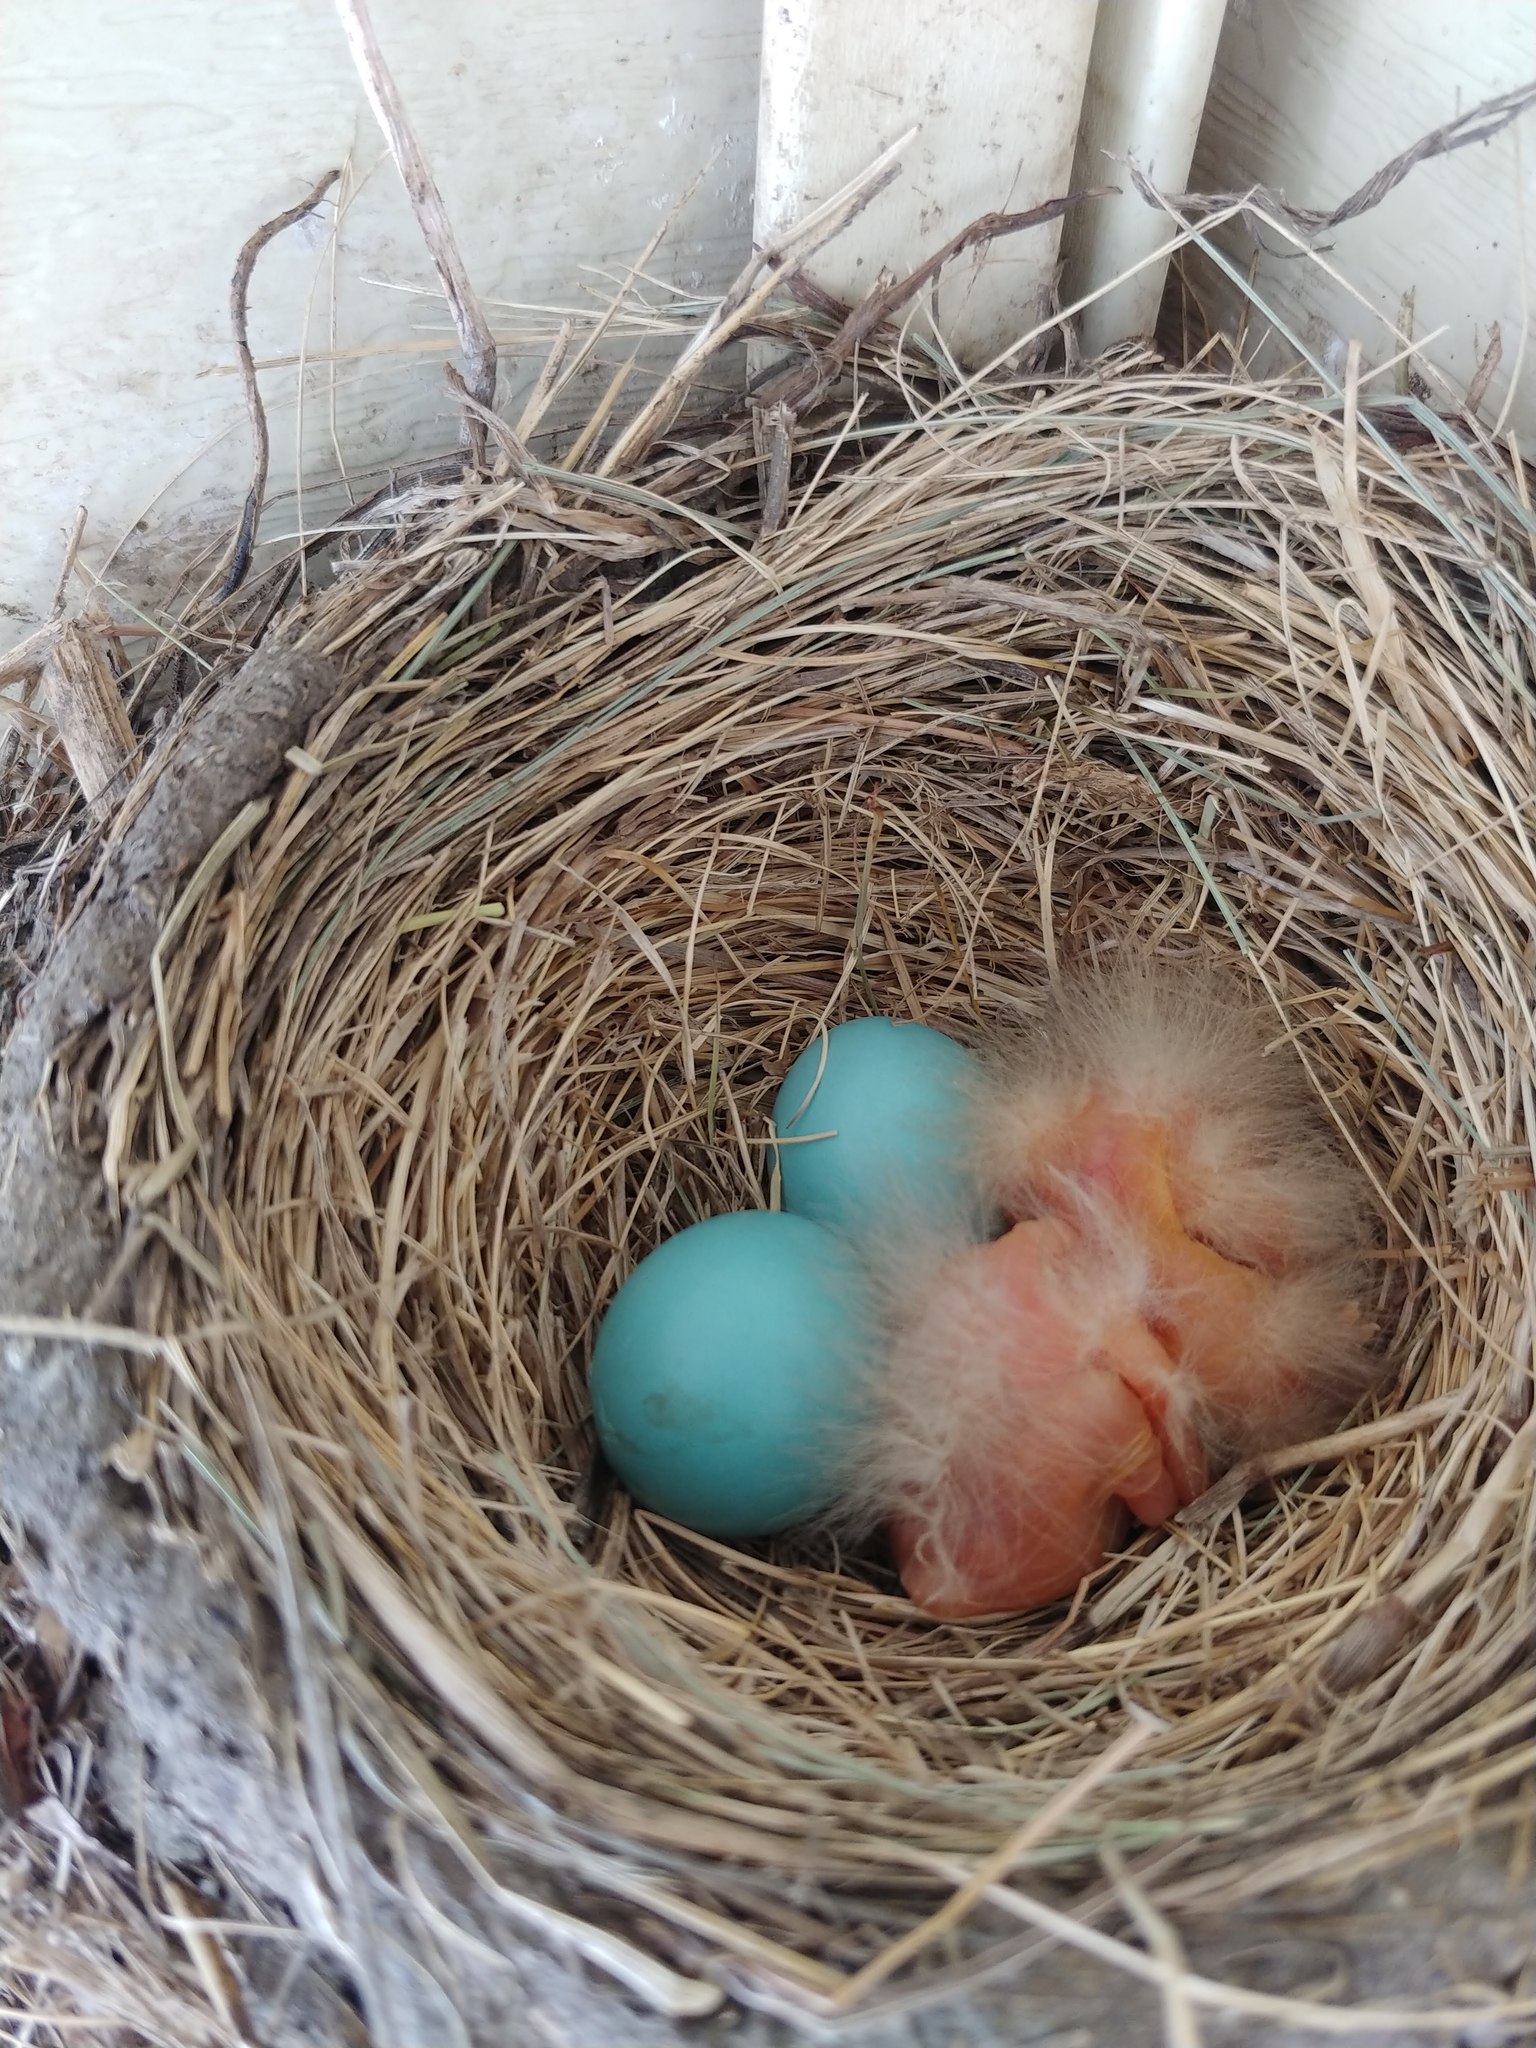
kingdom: Animalia
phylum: Chordata
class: Aves
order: Passeriformes
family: Turdidae
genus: Turdus
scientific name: Turdus migratorius
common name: American robin
